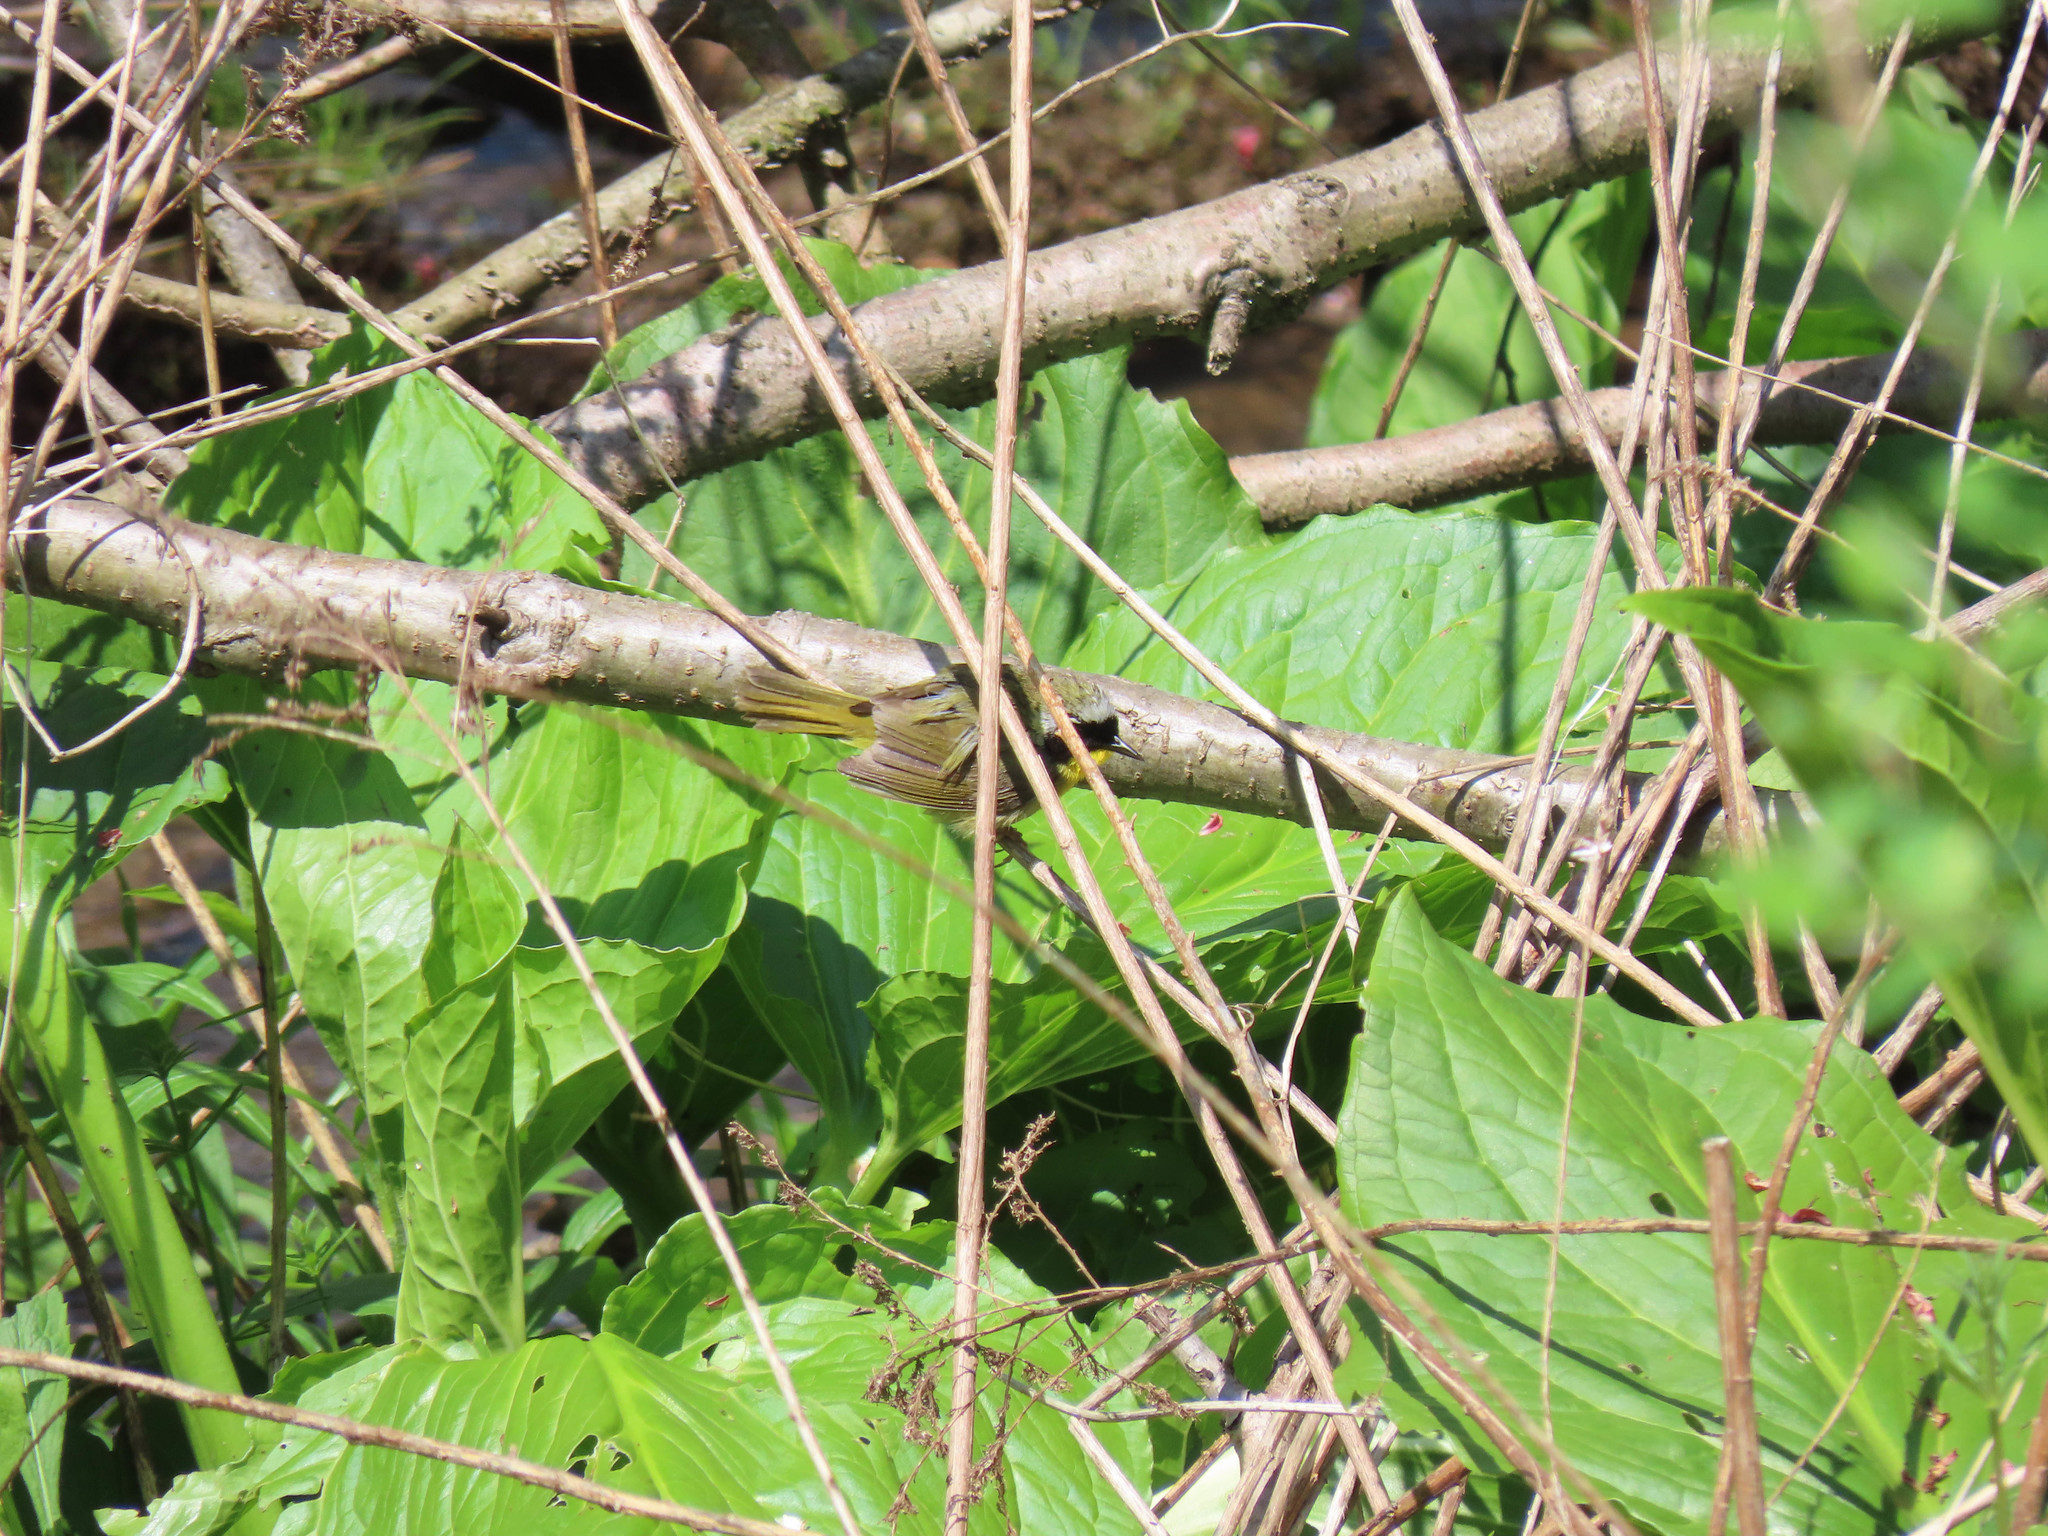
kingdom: Animalia
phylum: Chordata
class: Aves
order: Passeriformes
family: Parulidae
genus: Geothlypis
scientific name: Geothlypis trichas
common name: Common yellowthroat
